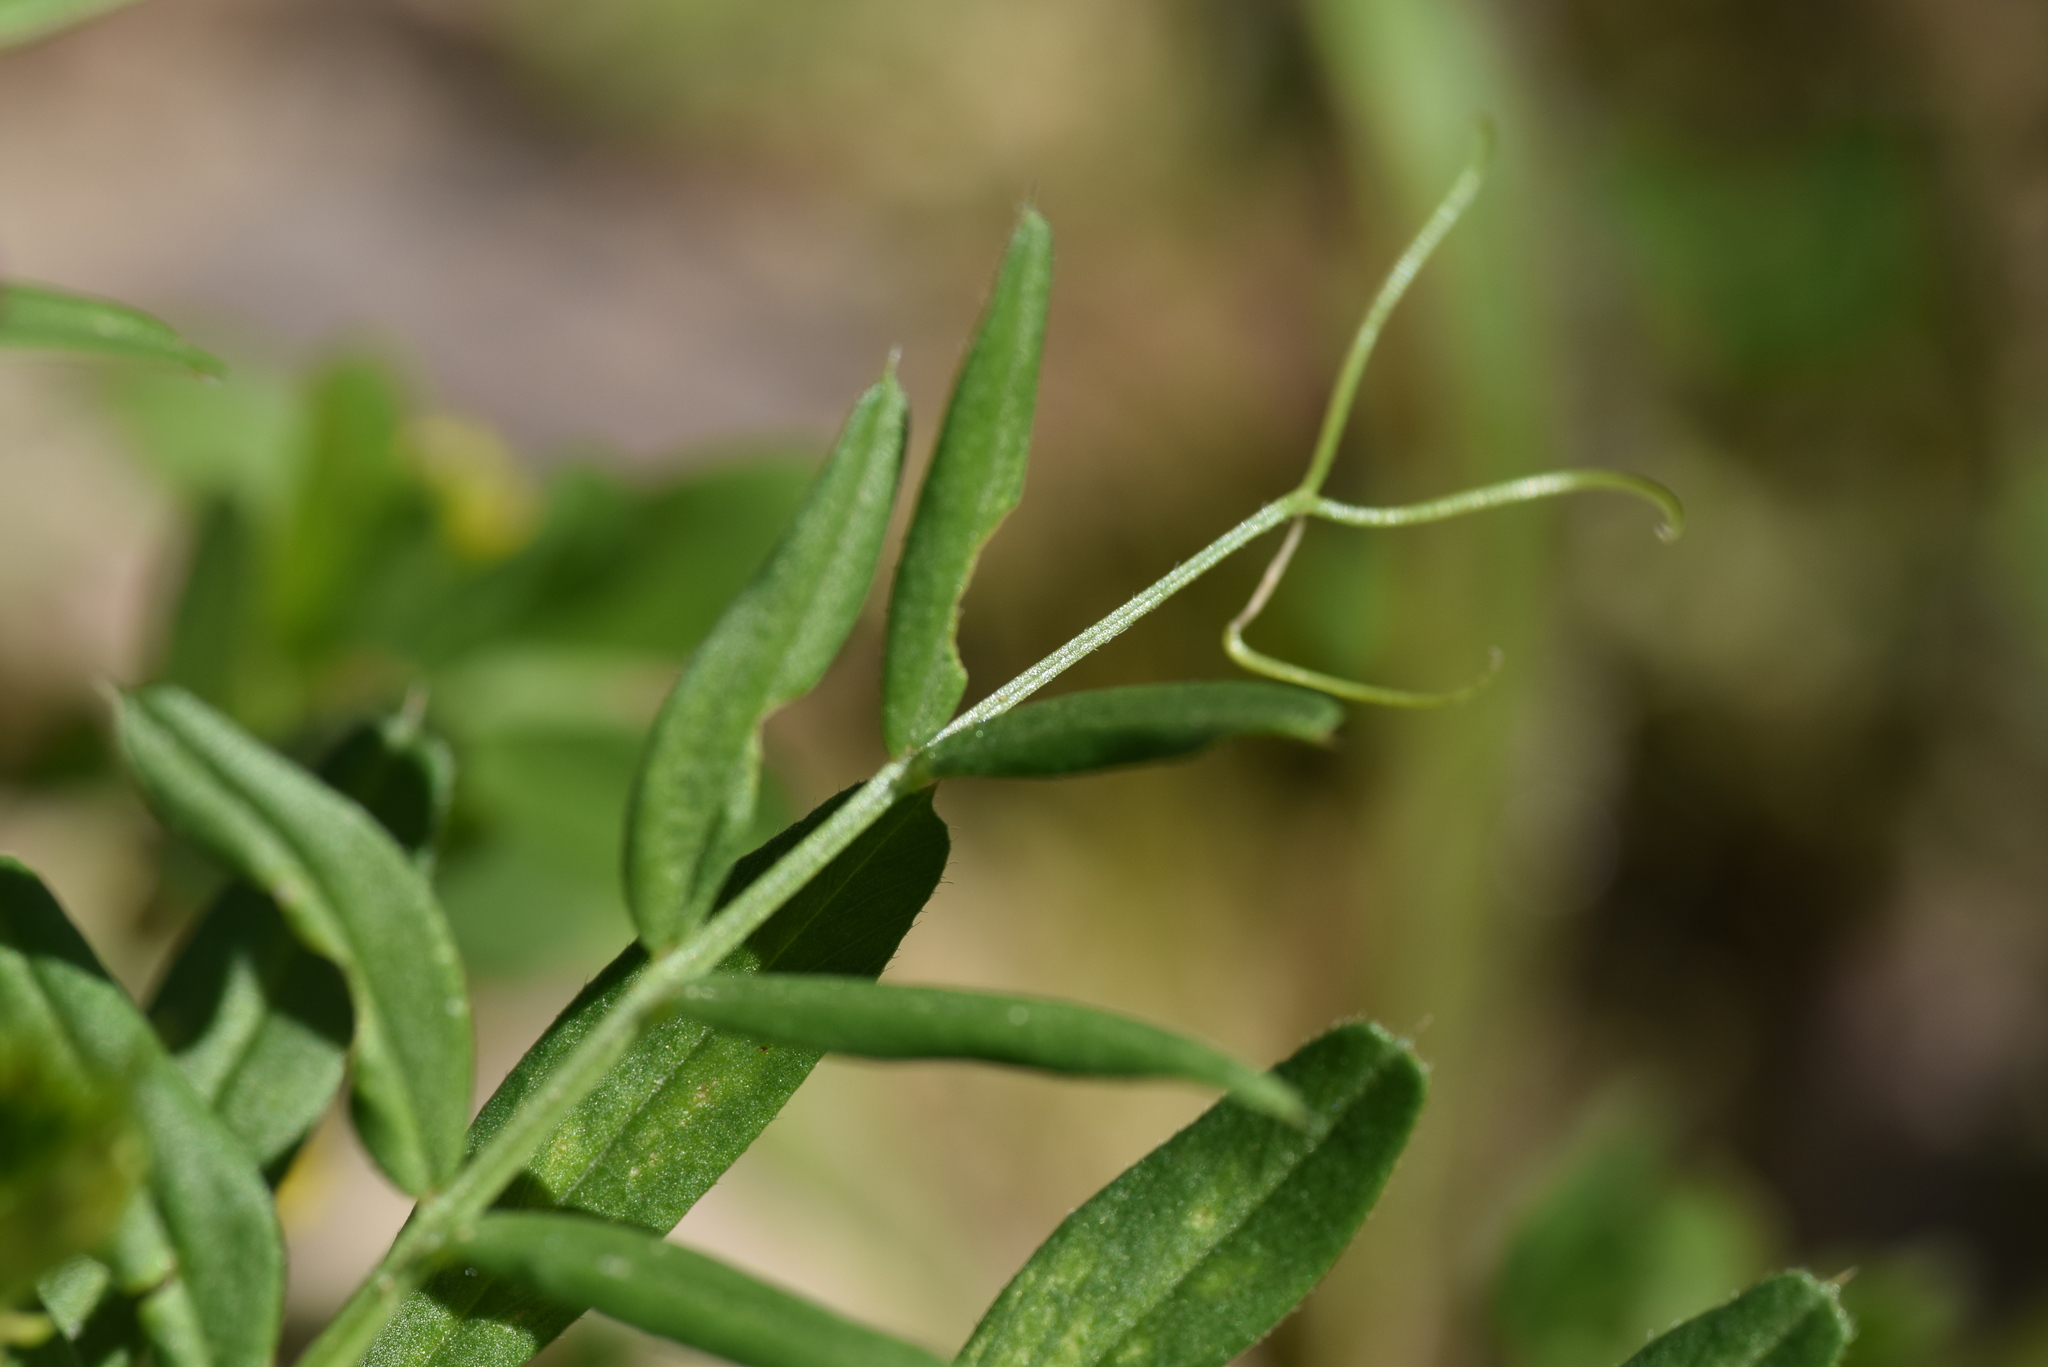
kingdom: Plantae
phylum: Tracheophyta
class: Magnoliopsida
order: Fabales
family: Fabaceae
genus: Vicia
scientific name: Vicia sativa
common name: Garden vetch
